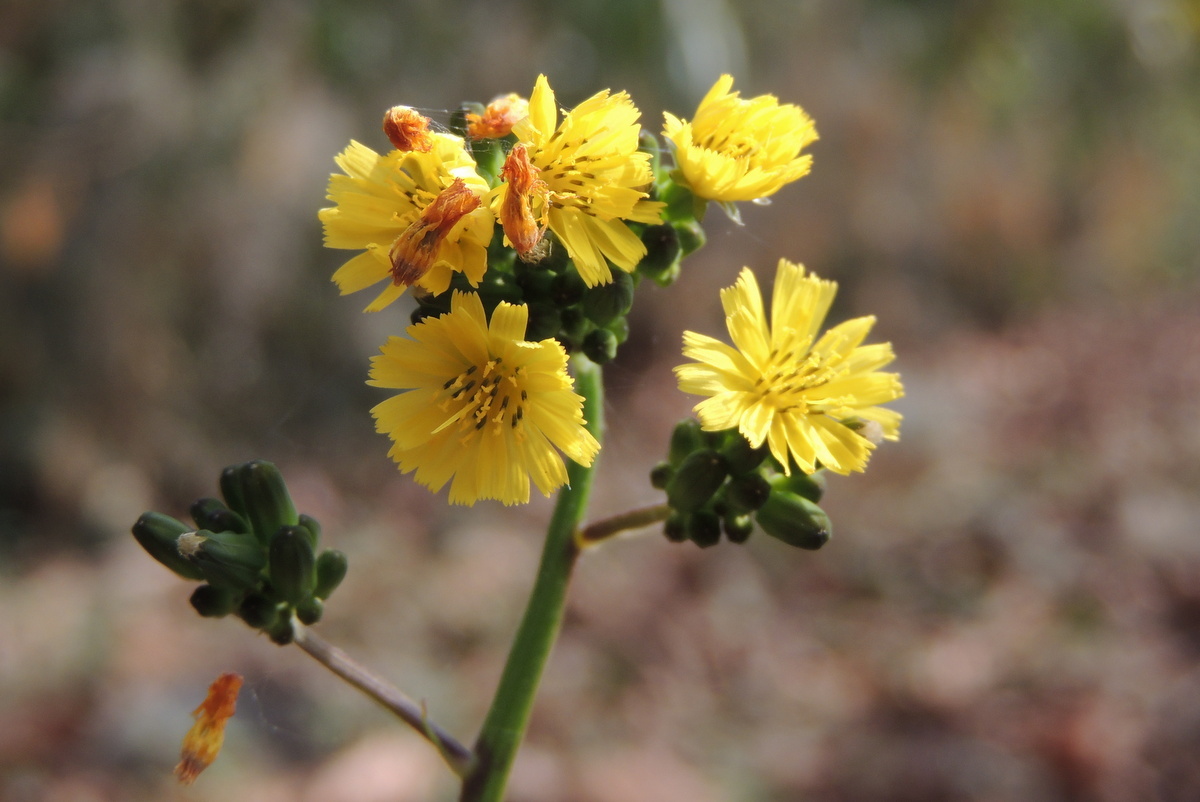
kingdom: Plantae
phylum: Tracheophyta
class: Magnoliopsida
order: Asterales
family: Asteraceae
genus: Youngia
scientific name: Youngia japonica
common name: Oriental false hawksbeard
